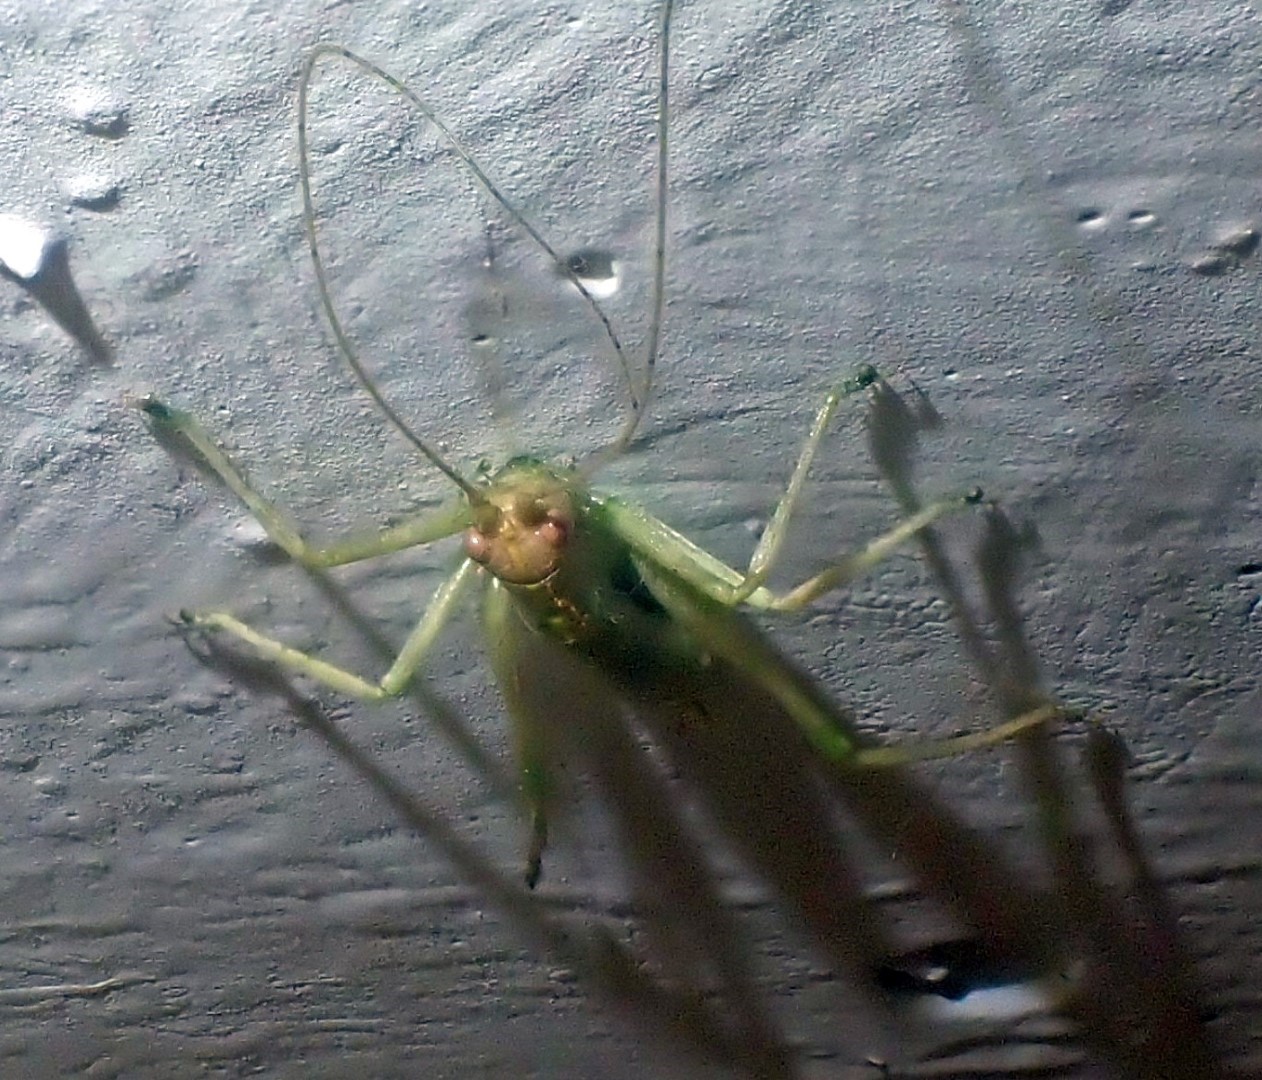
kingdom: Animalia
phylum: Arthropoda
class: Insecta
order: Orthoptera
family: Tettigoniidae
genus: Meconema
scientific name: Meconema meridionale
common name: Southern oak bush-cricket
